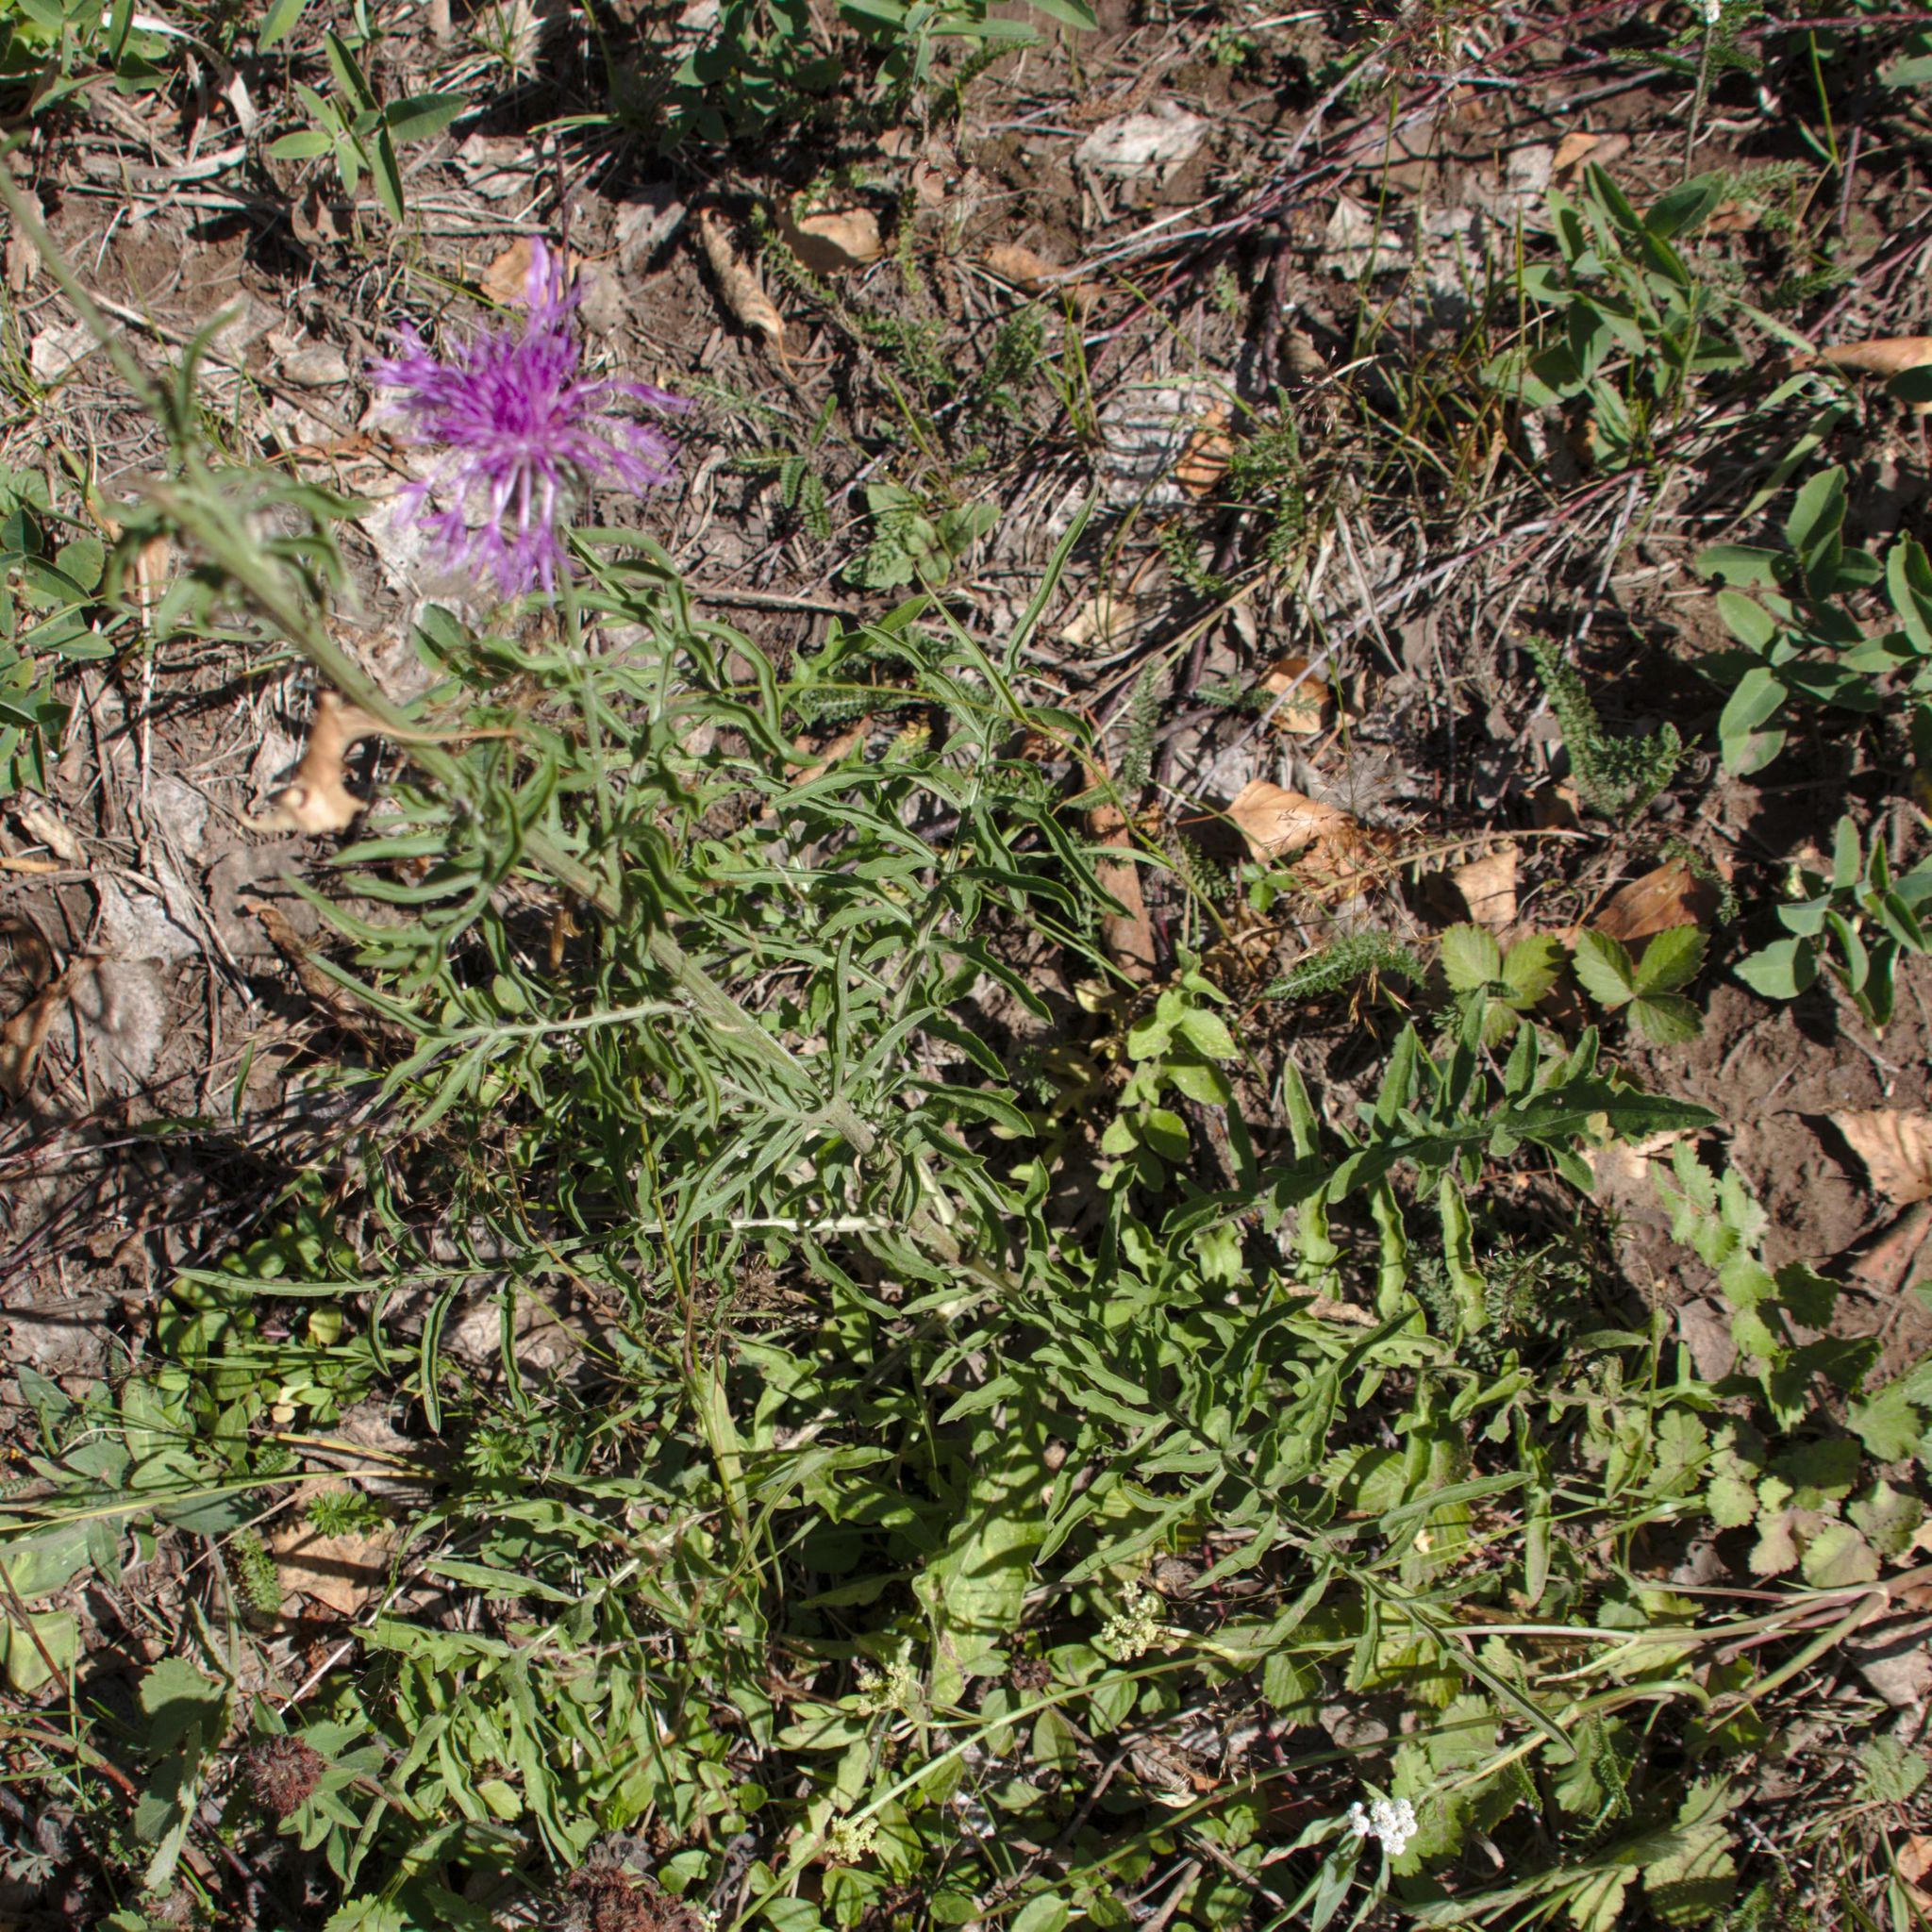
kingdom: Plantae
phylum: Tracheophyta
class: Magnoliopsida
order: Asterales
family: Asteraceae
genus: Centaurea
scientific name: Centaurea scabiosa
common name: Greater knapweed
